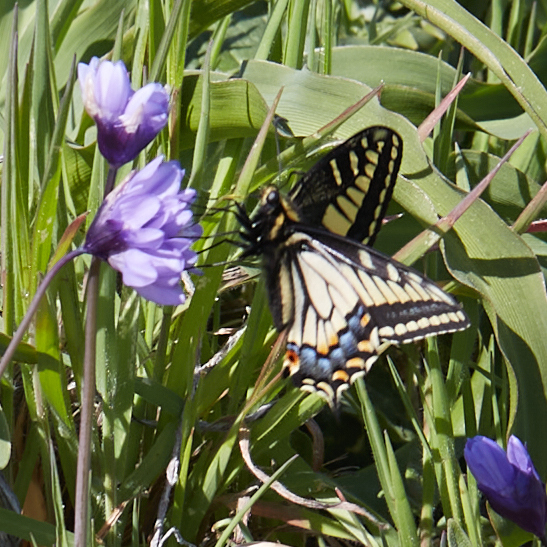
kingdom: Animalia
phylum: Arthropoda
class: Insecta
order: Lepidoptera
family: Papilionidae
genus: Papilio
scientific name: Papilio zelicaon
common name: Anise swallowtail
